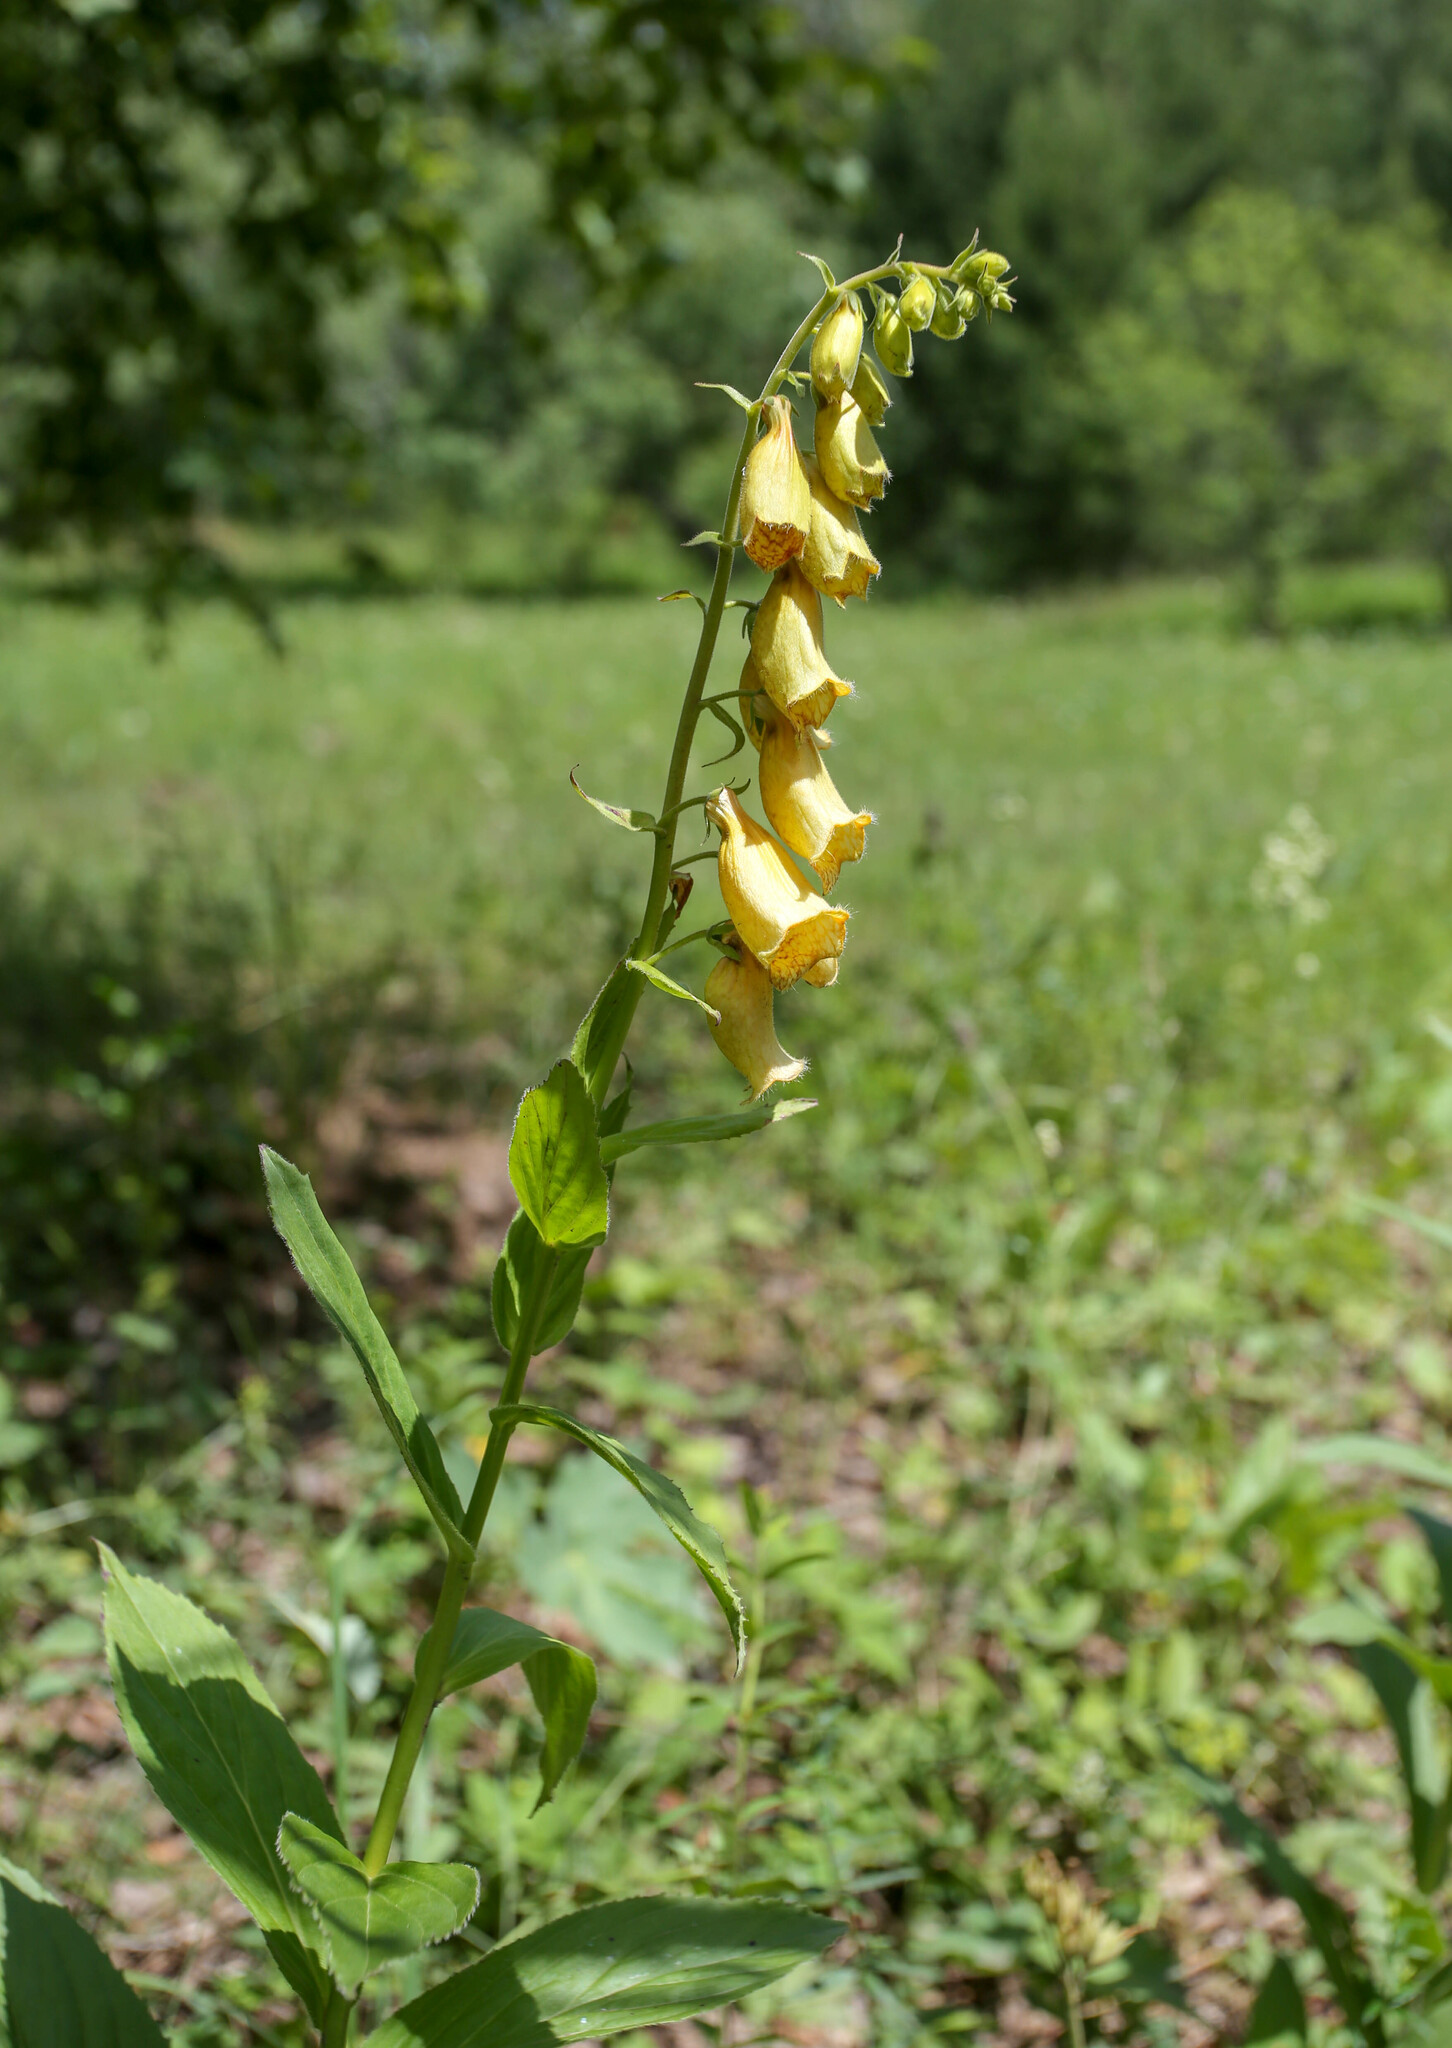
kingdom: Plantae
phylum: Tracheophyta
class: Magnoliopsida
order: Lamiales
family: Plantaginaceae
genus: Digitalis
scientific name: Digitalis grandiflora
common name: Yellow foxglove
